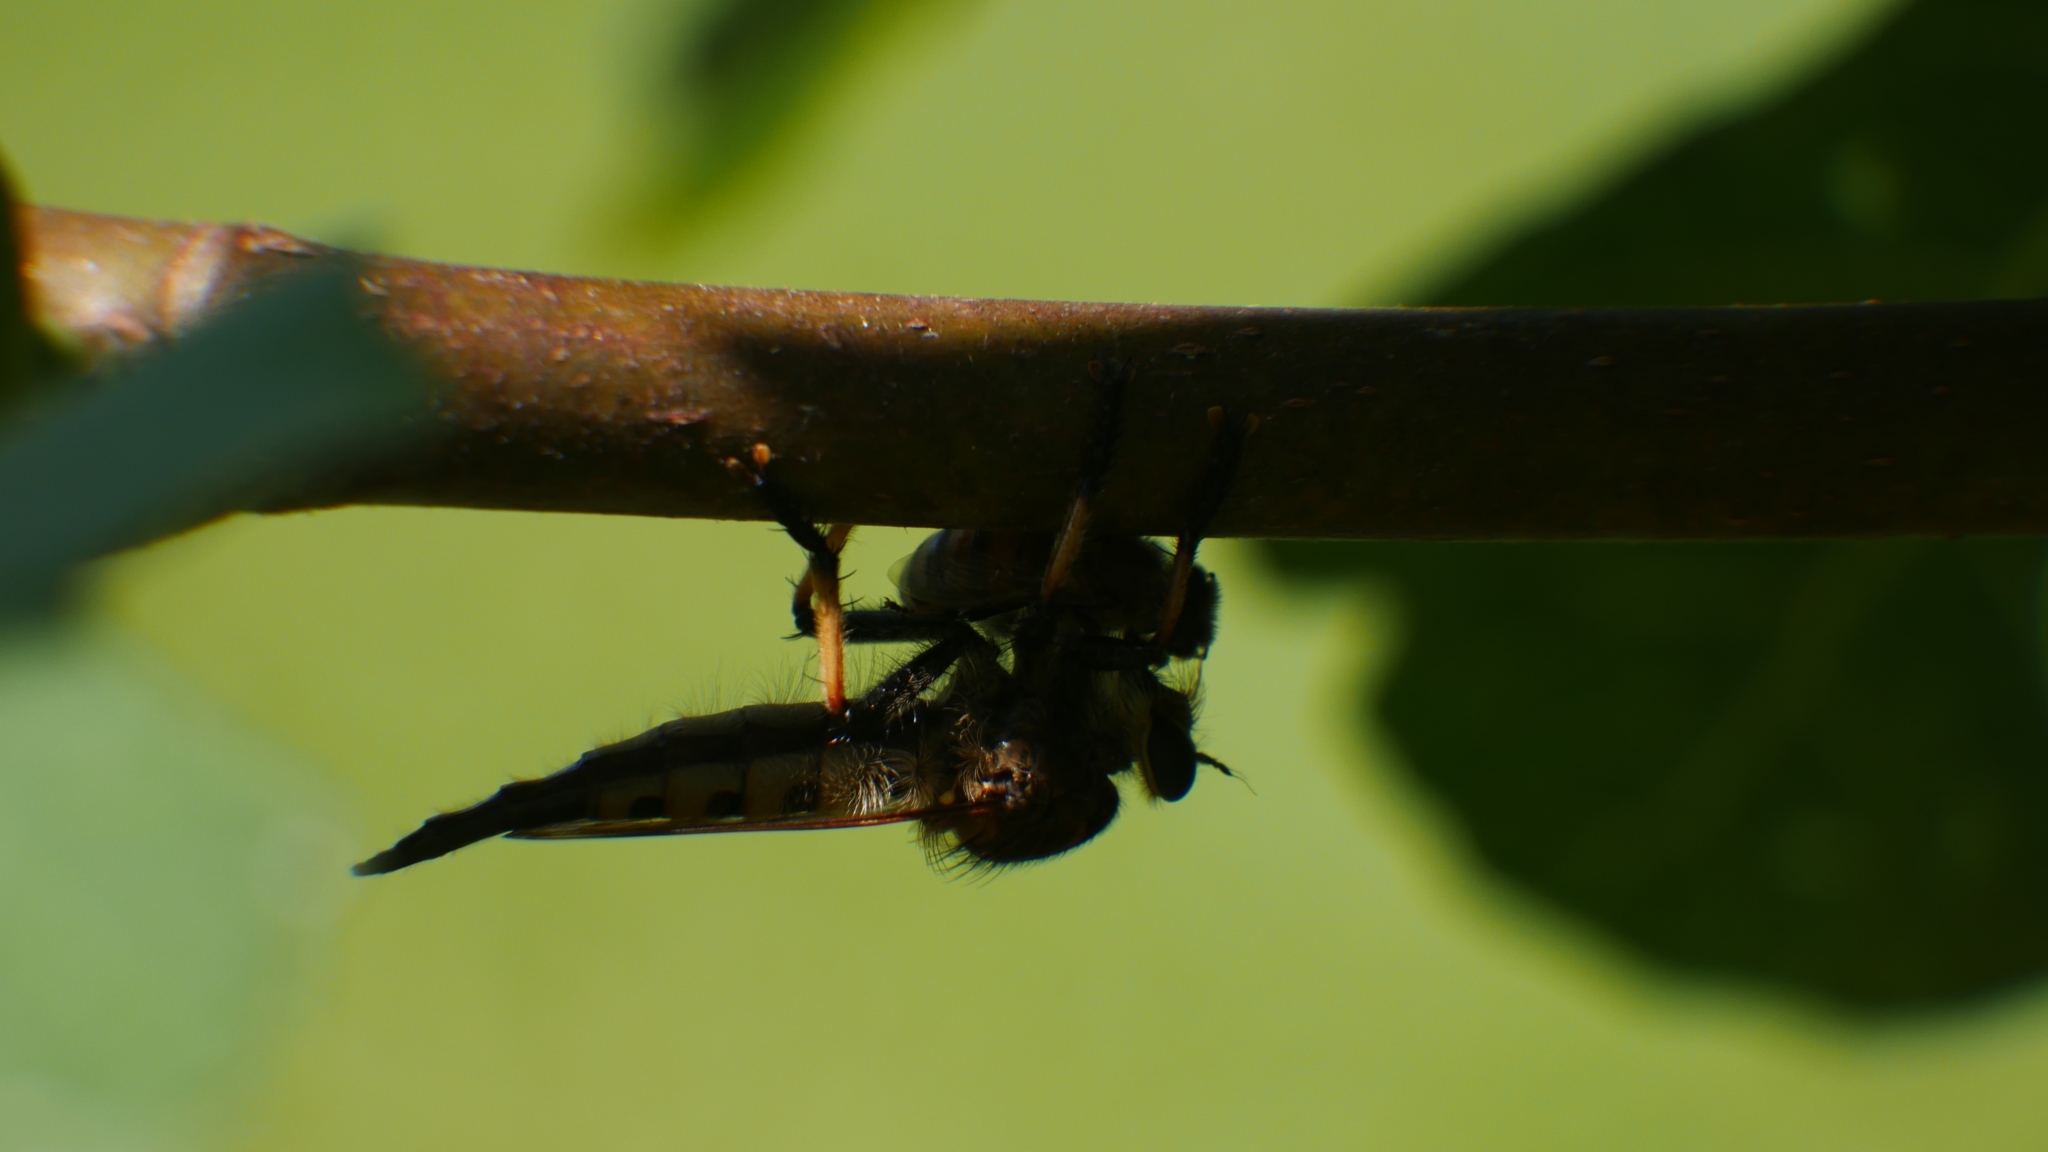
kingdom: Animalia
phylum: Arthropoda
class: Insecta
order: Diptera
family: Asilidae
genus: Promachus
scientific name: Promachus rufipes
